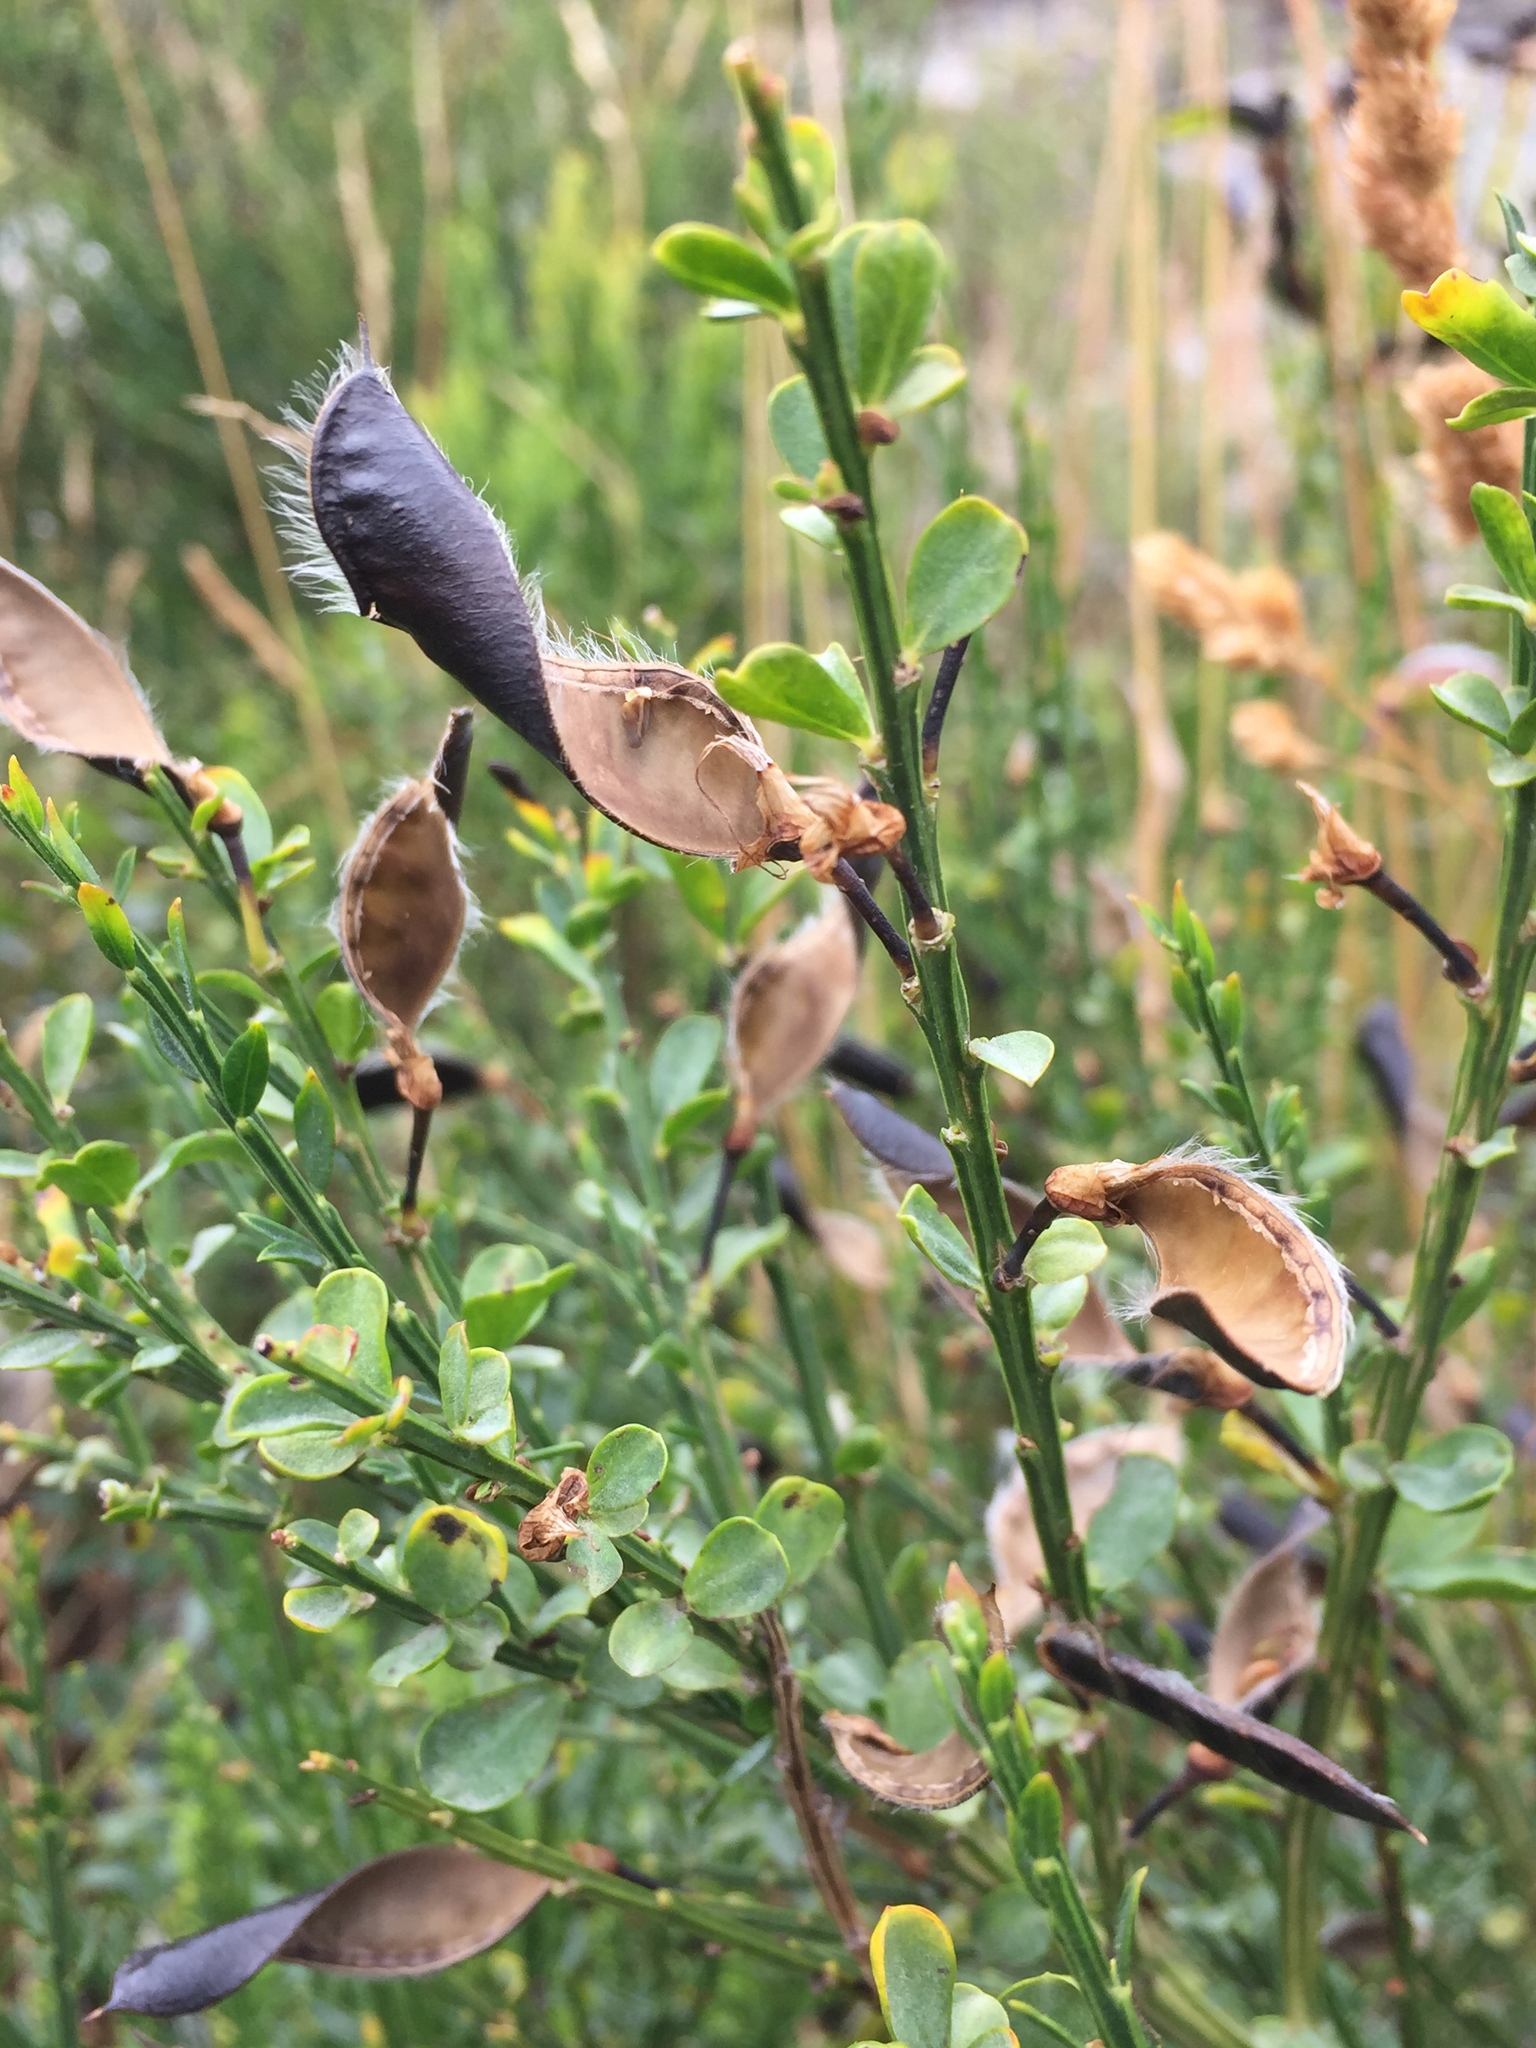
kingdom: Plantae
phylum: Tracheophyta
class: Magnoliopsida
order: Fabales
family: Fabaceae
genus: Cytisus
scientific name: Cytisus scoparius
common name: Scotch broom
